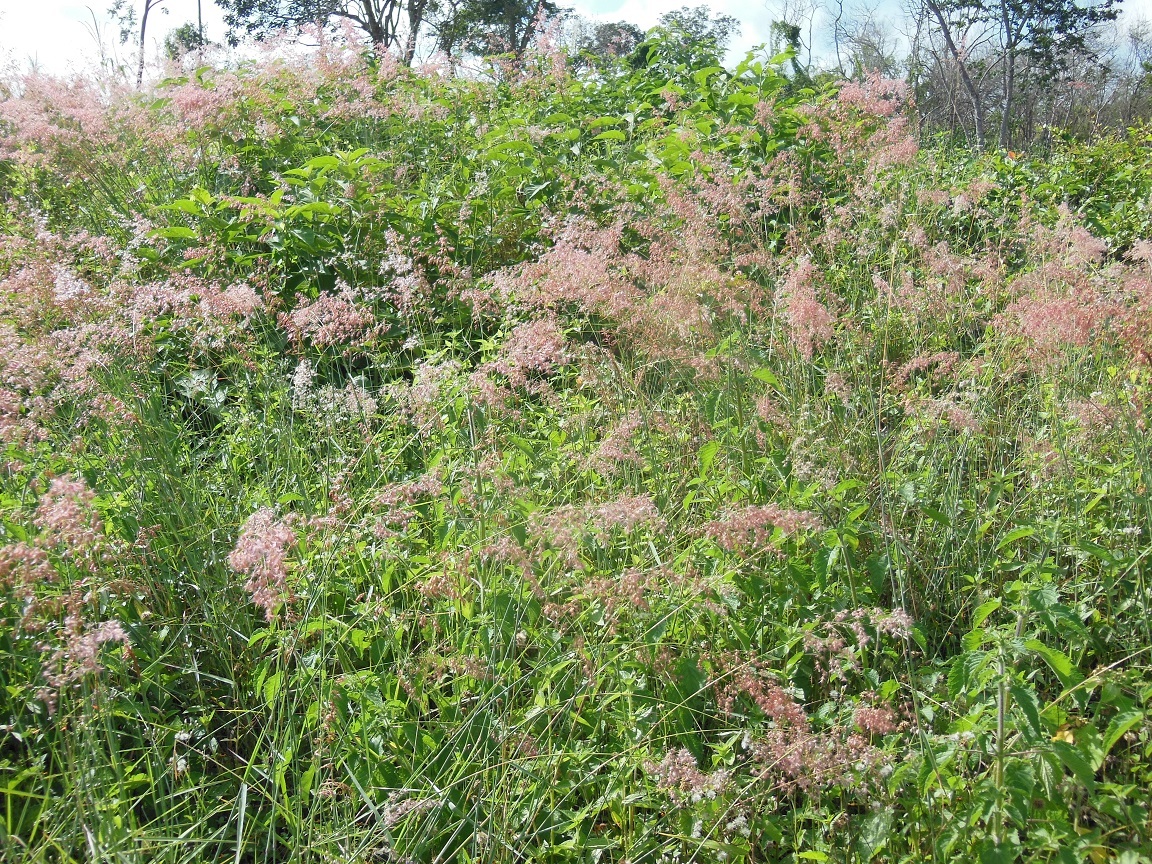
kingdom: Plantae
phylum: Tracheophyta
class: Liliopsida
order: Poales
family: Poaceae
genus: Melinis
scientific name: Melinis repens
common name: Rose natal grass
